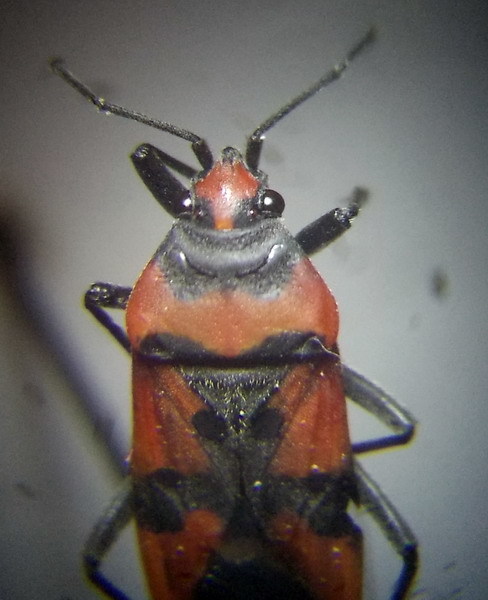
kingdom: Animalia
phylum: Arthropoda
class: Insecta
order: Hemiptera
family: Lygaeidae
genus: Lygaeus
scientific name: Lygaeus simulans
